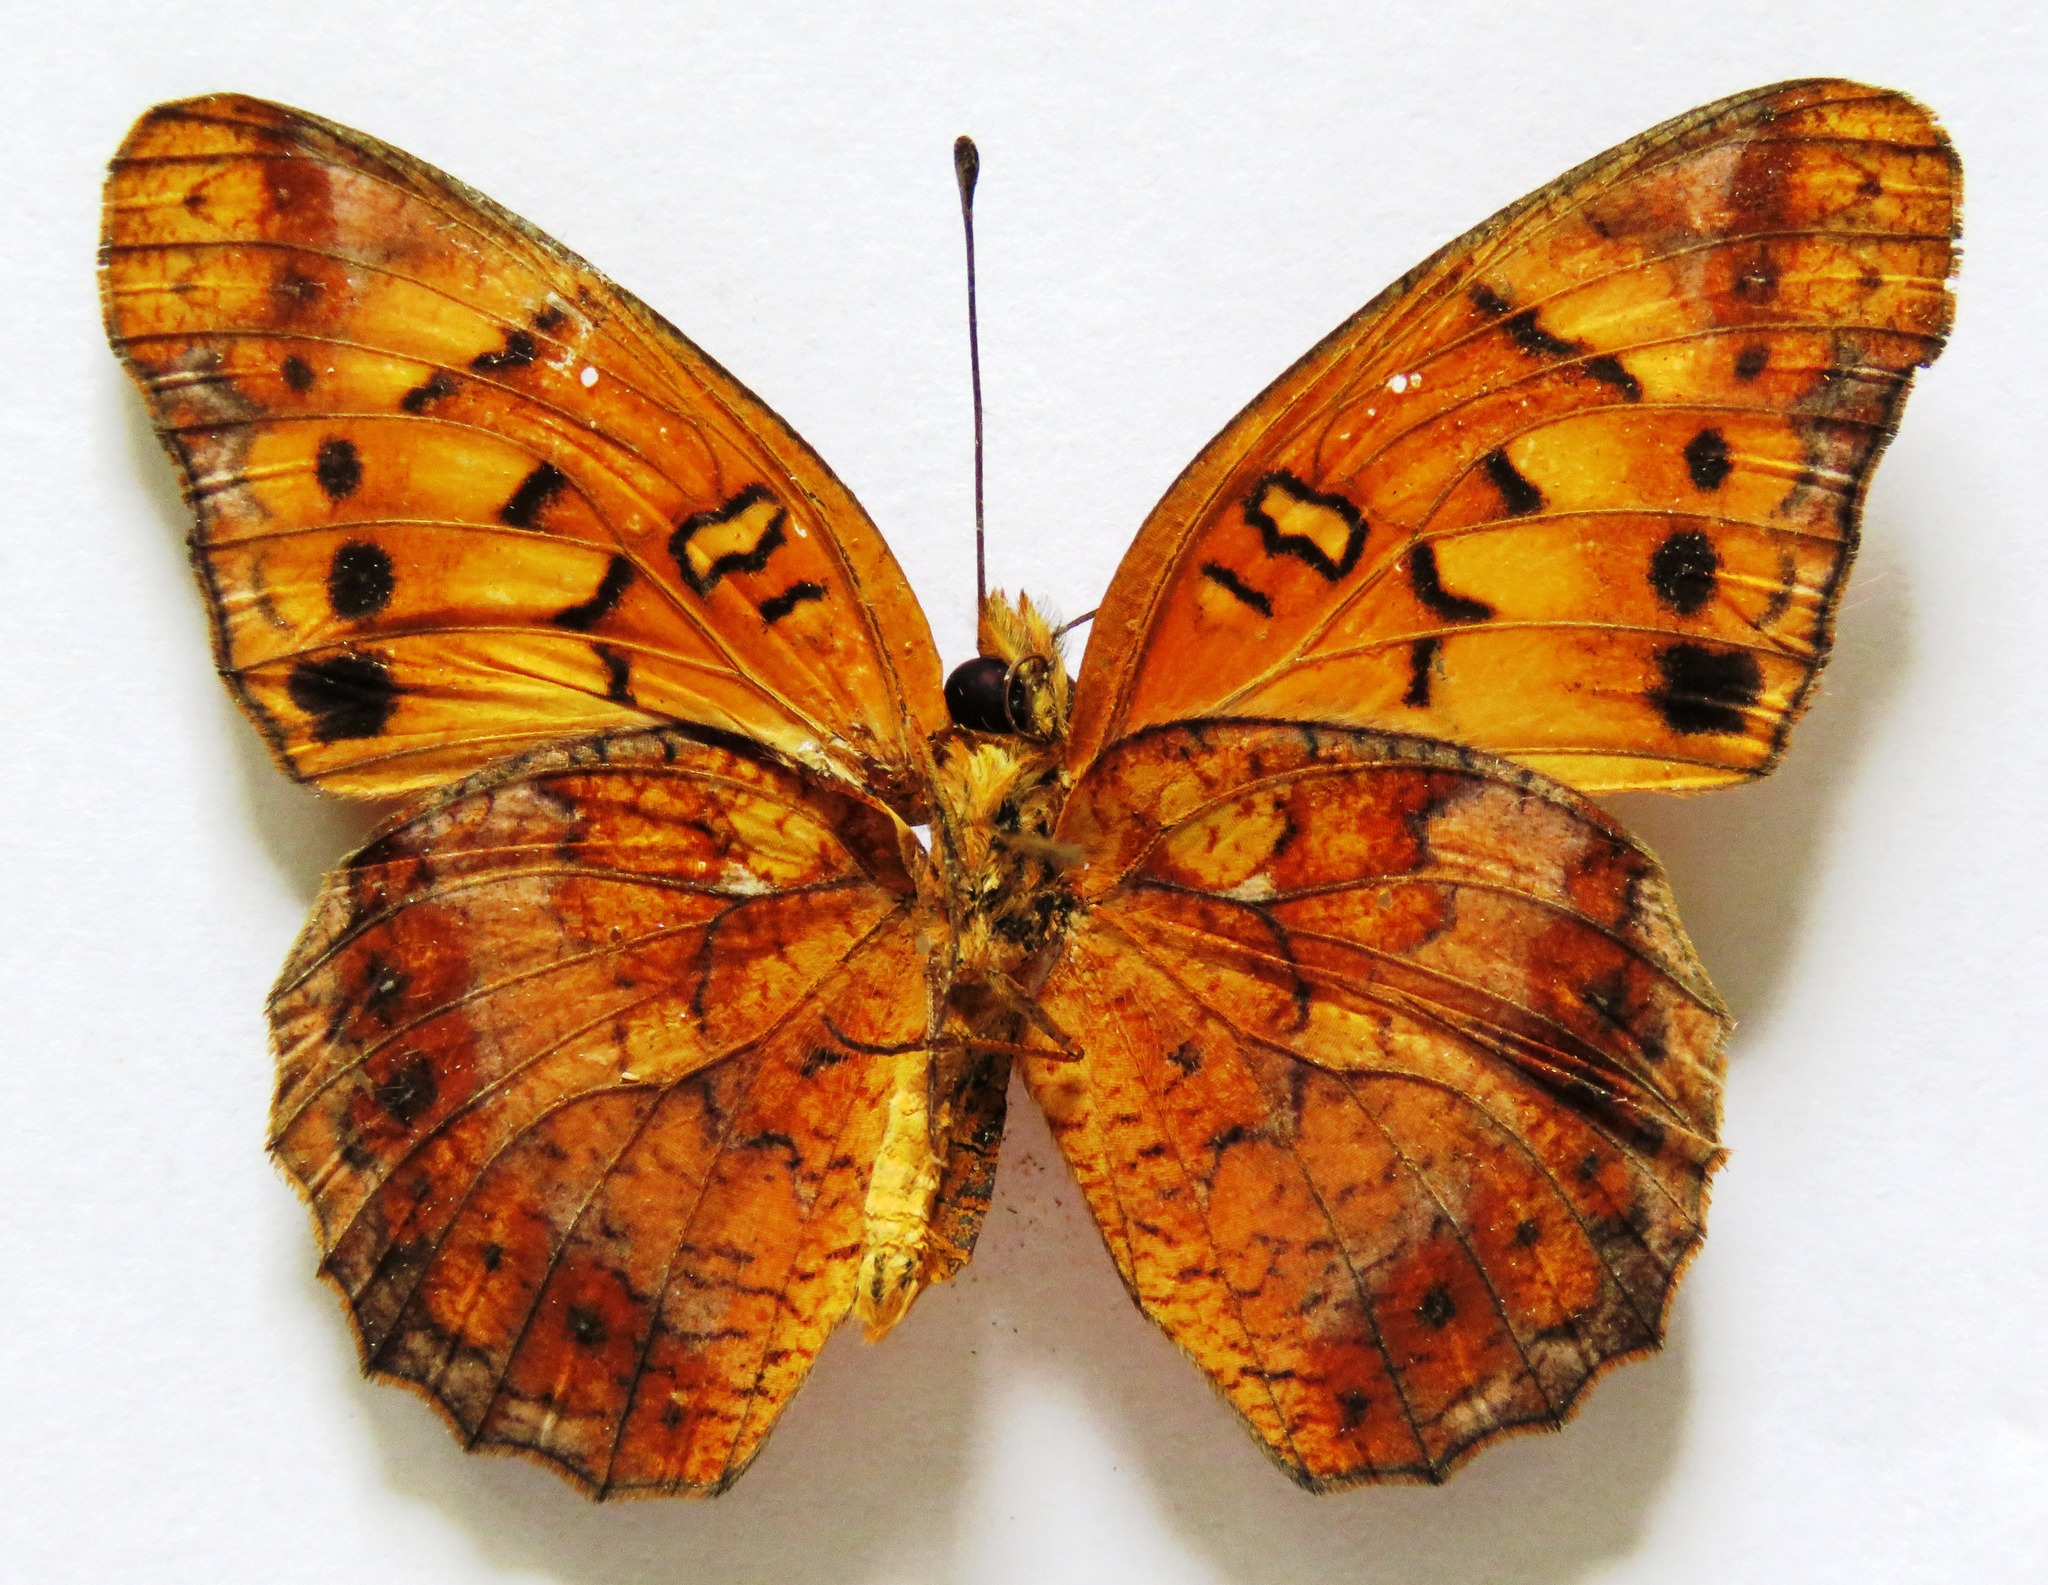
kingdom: Animalia
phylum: Arthropoda
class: Insecta
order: Lepidoptera
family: Nymphalidae
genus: Euptoieta
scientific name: Euptoieta hegesia
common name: Mexican fritillary
